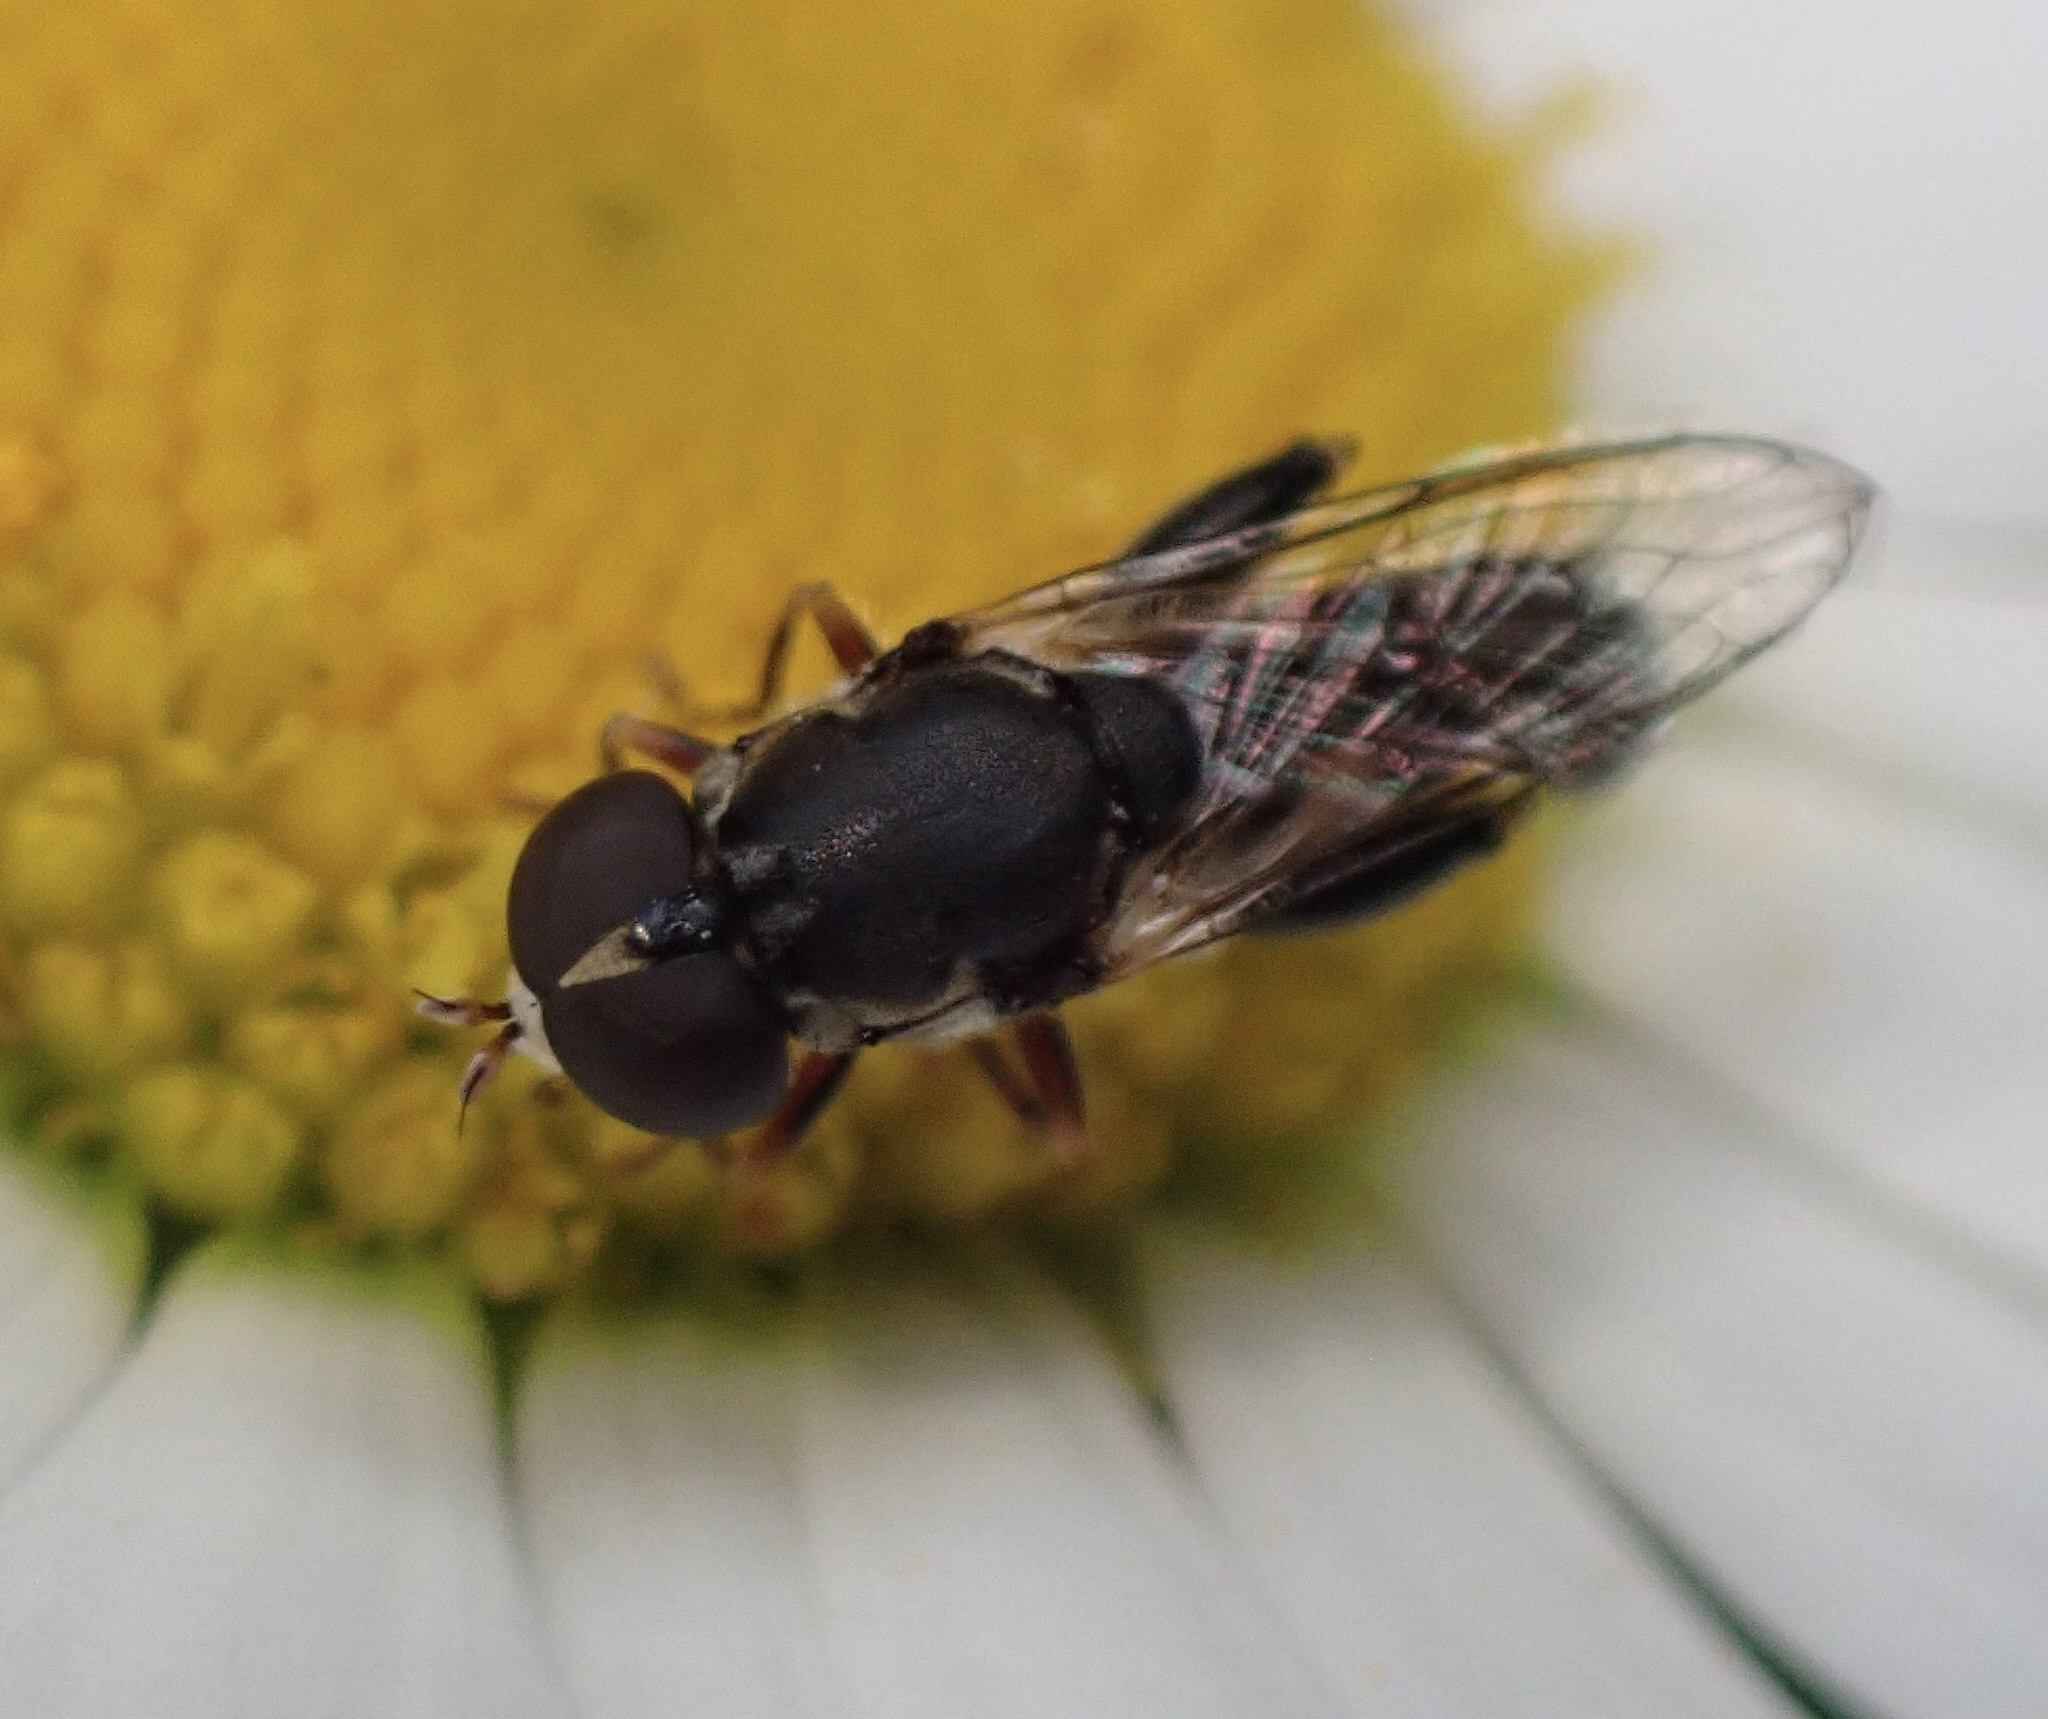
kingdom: Animalia
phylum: Arthropoda
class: Insecta
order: Diptera
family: Syrphidae
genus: Syritta
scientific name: Syritta pipiens
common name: Hover fly
